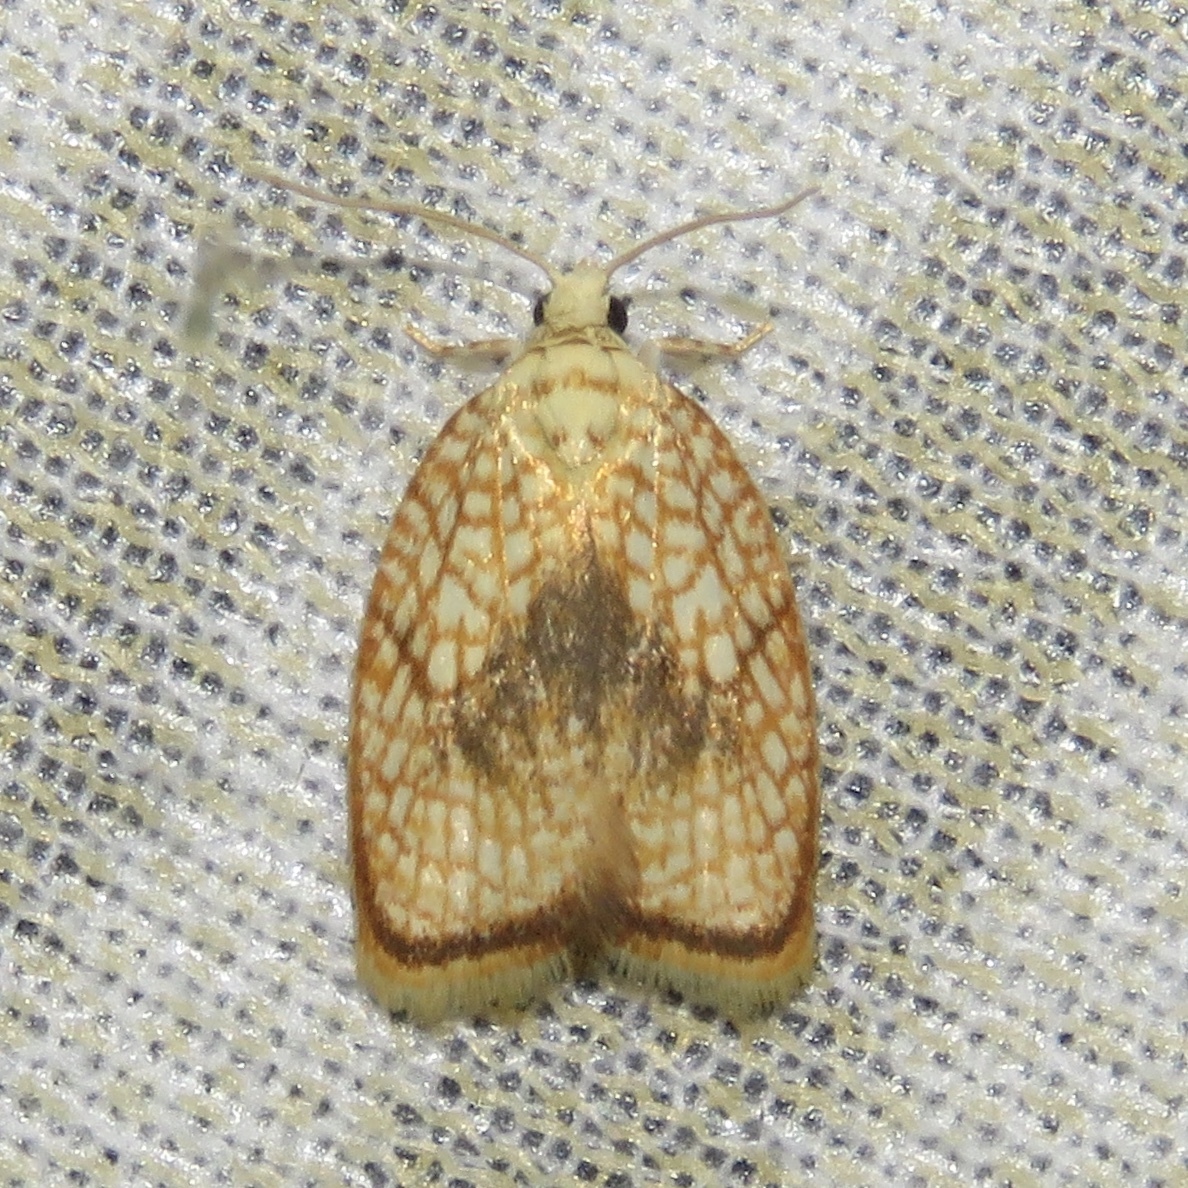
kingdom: Animalia
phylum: Arthropoda
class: Insecta
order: Lepidoptera
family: Tortricidae
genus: Acleris
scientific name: Acleris forsskaleana
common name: Maple button
